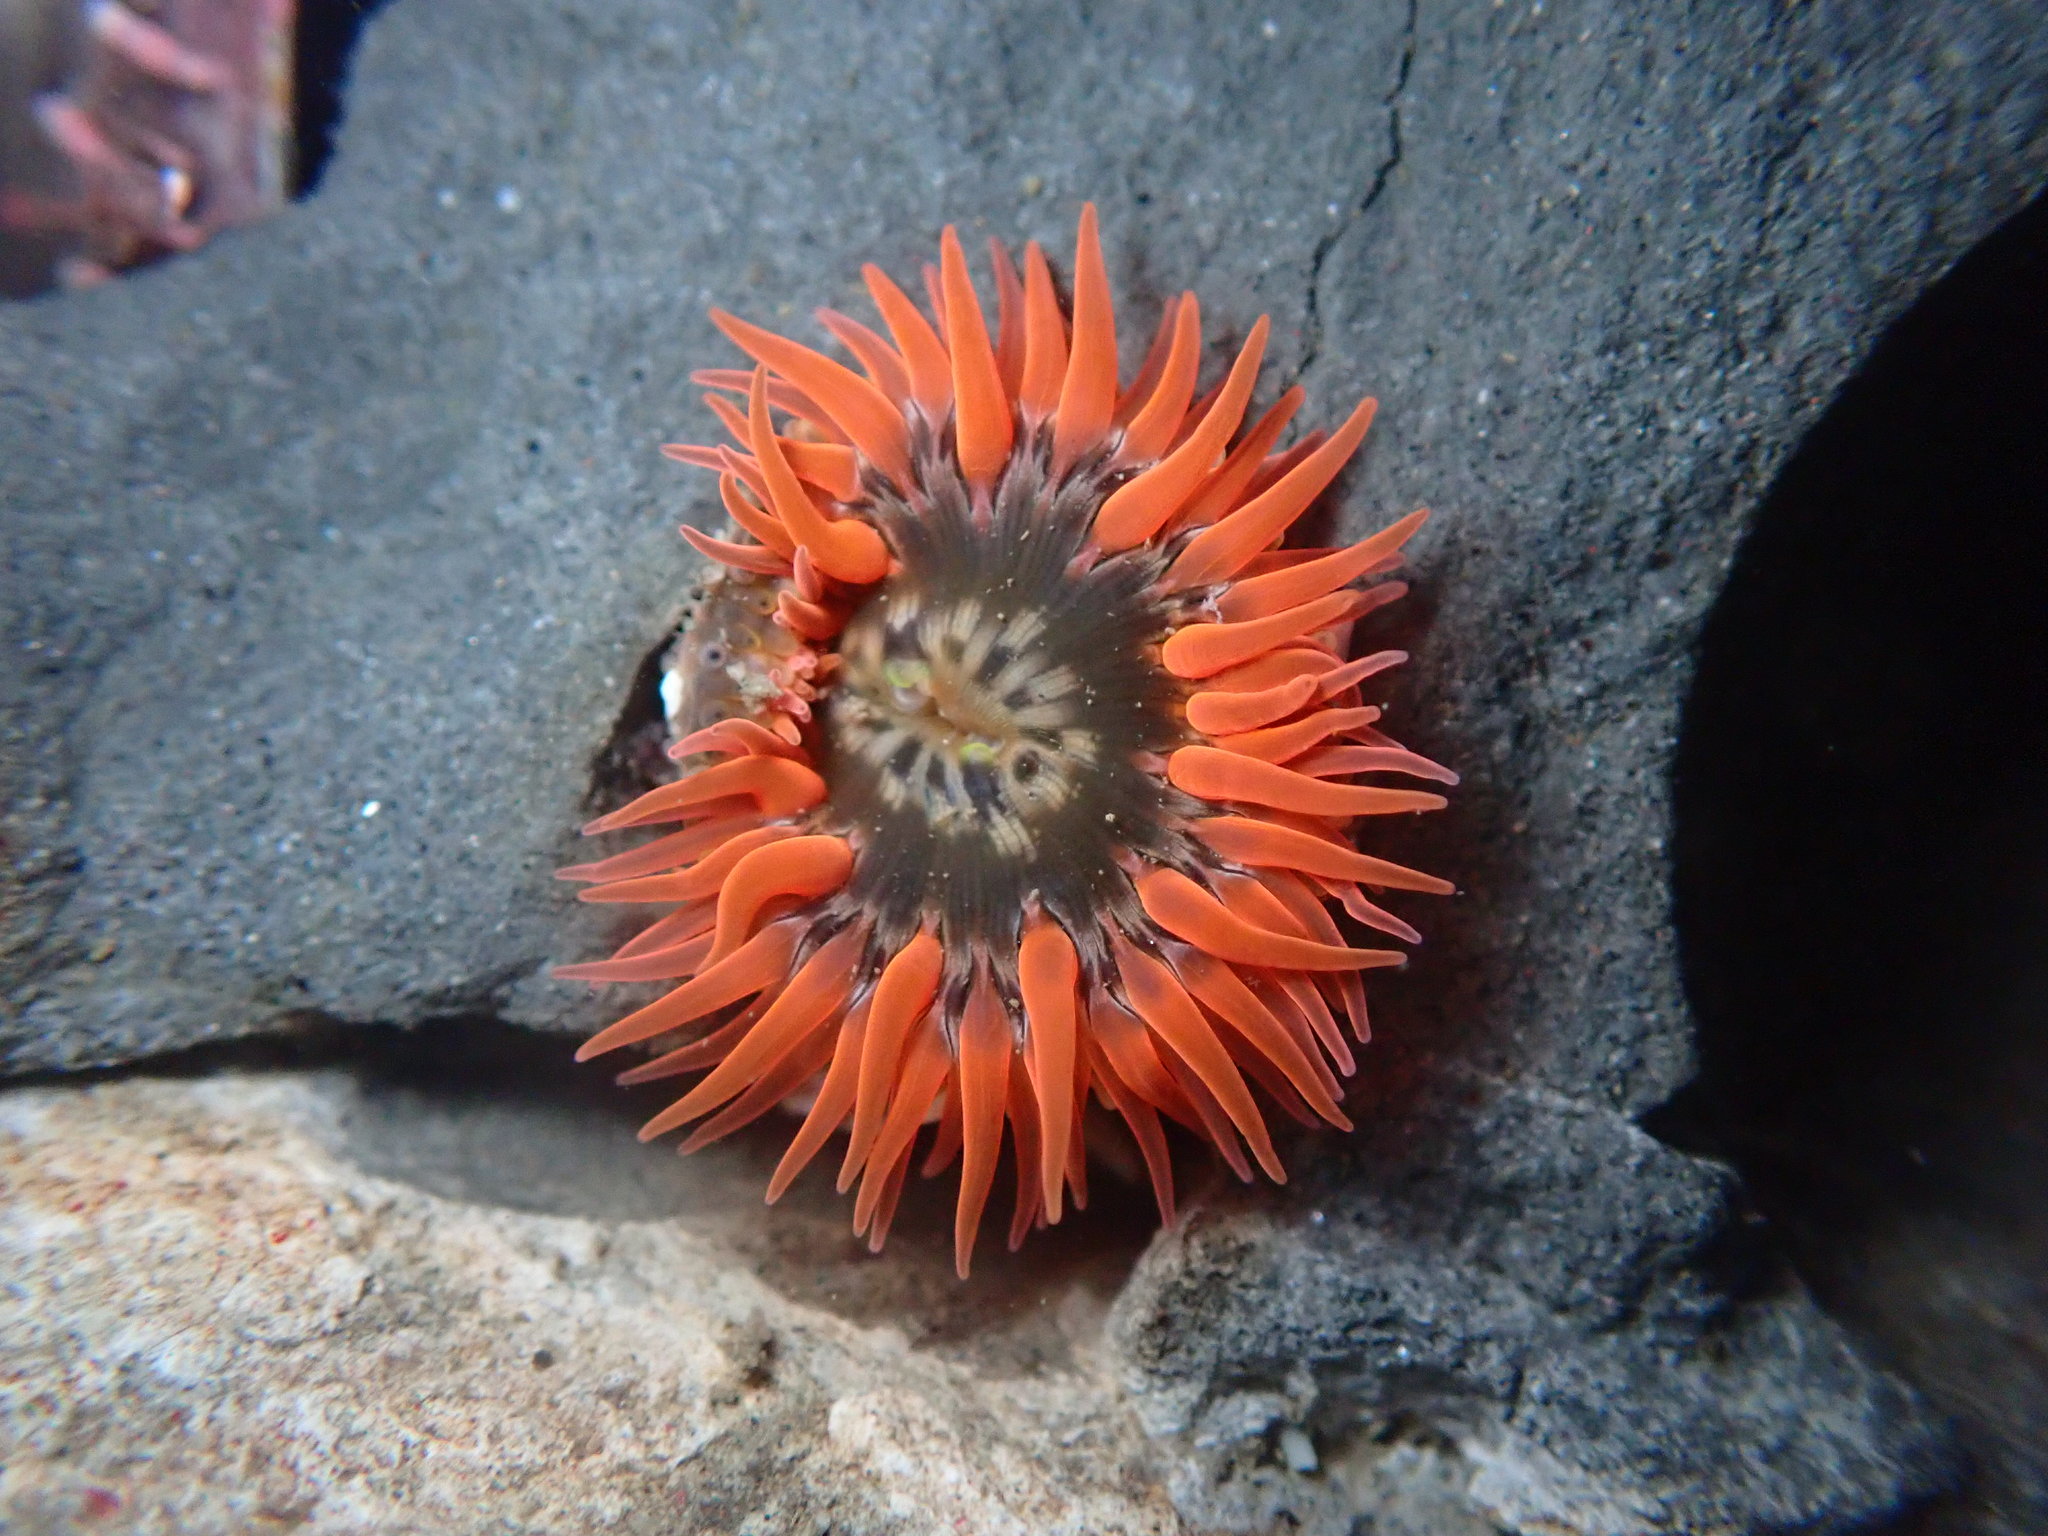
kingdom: Animalia
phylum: Cnidaria
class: Anthozoa
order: Actiniaria
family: Actiniidae
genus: Anthopleura
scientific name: Anthopleura artemisia
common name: Buried sea anemone
